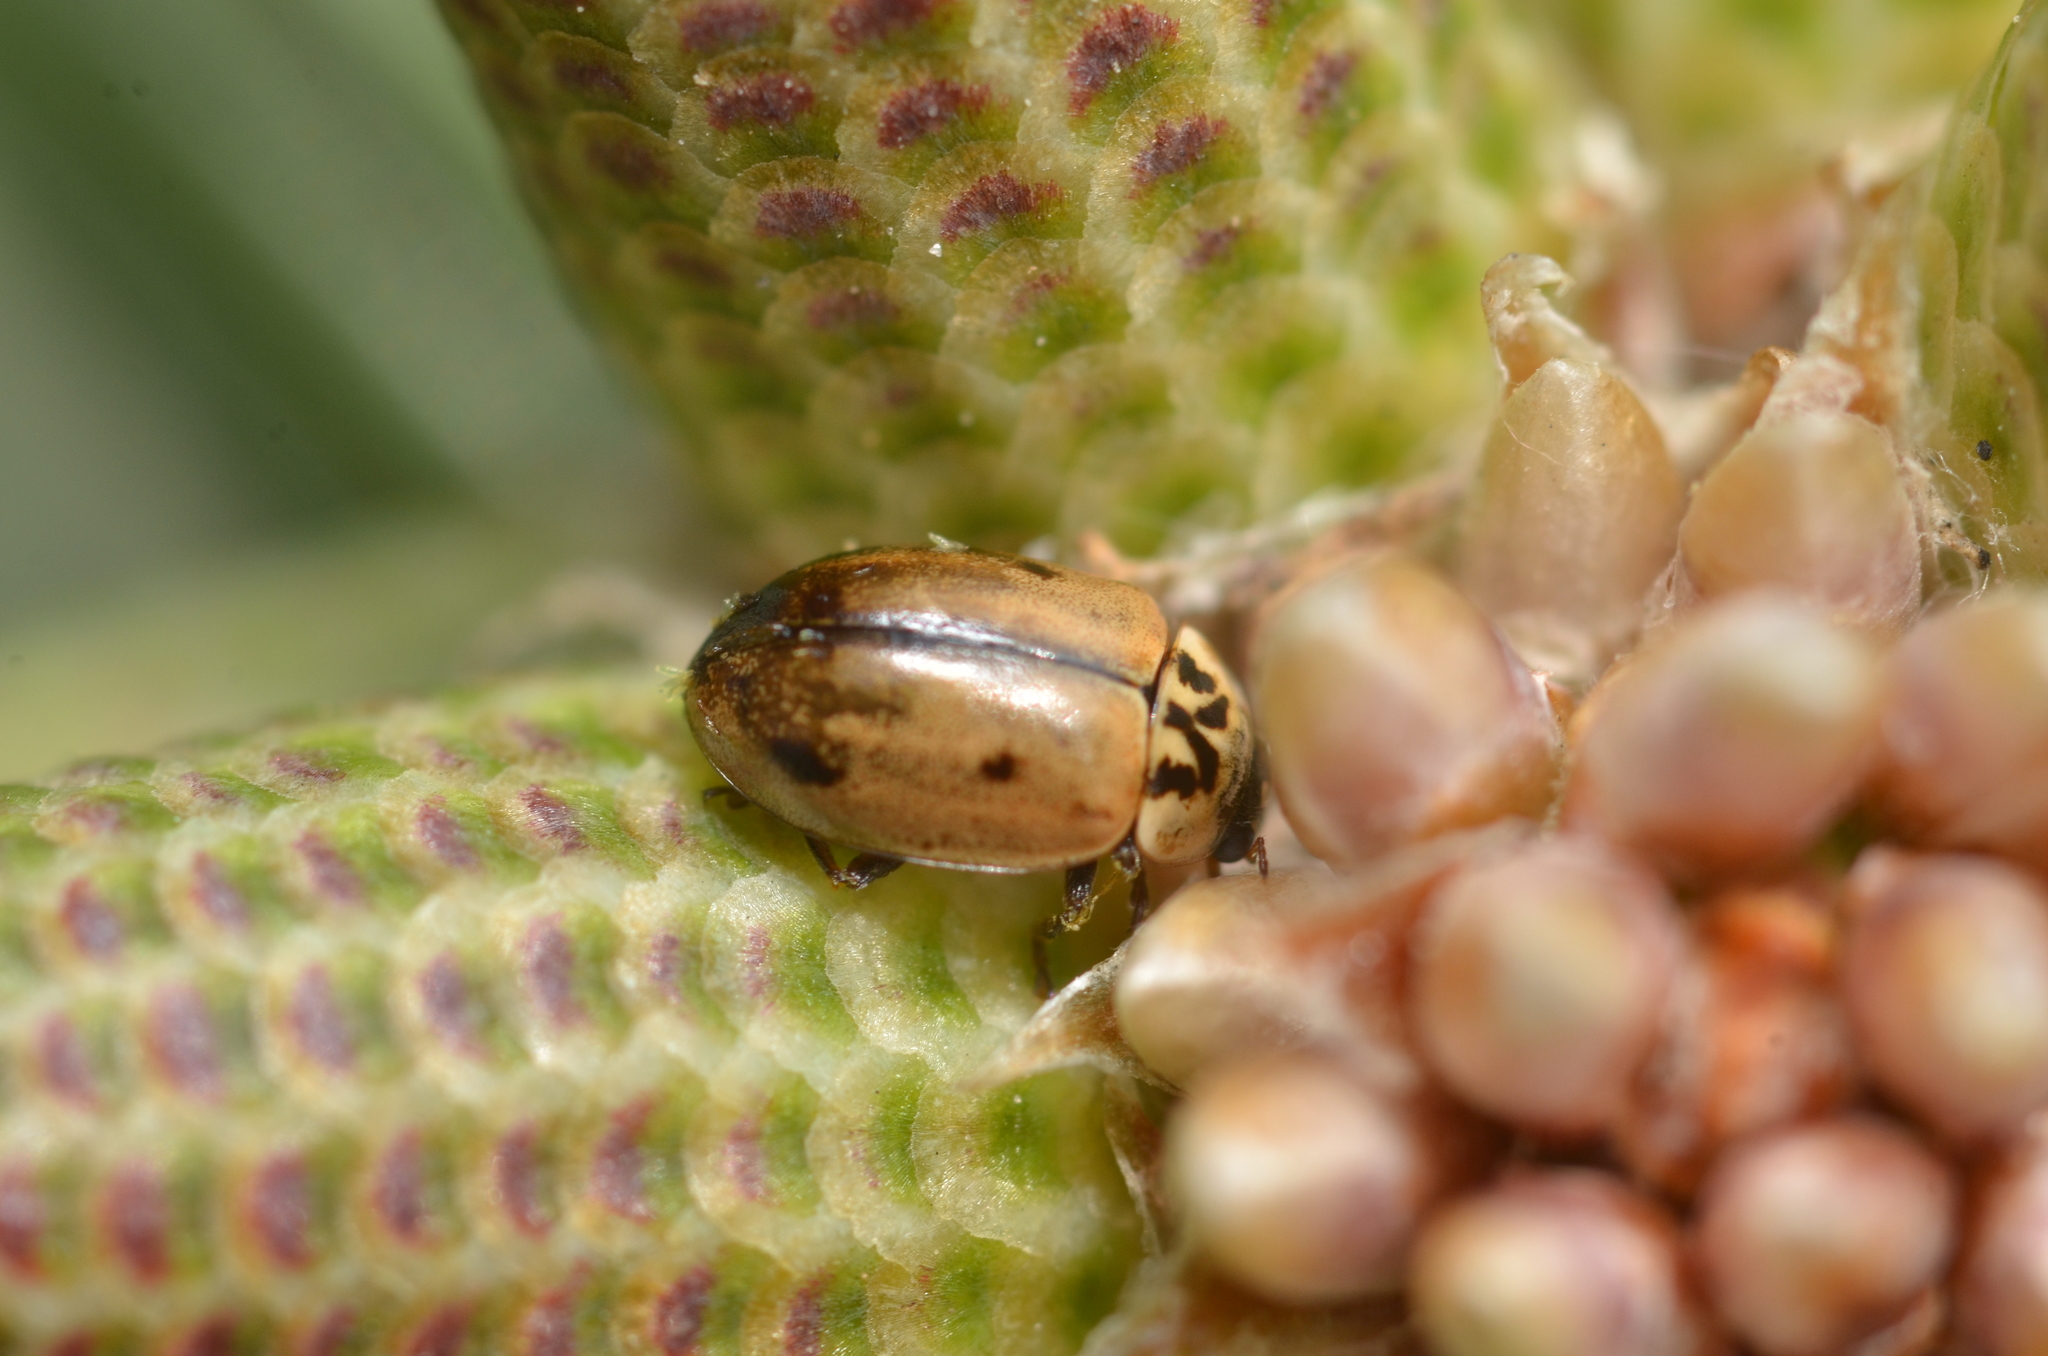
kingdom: Animalia
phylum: Arthropoda
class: Insecta
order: Coleoptera
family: Coccinellidae
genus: Aphidecta
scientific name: Aphidecta obliterata
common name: Larch ladybird
